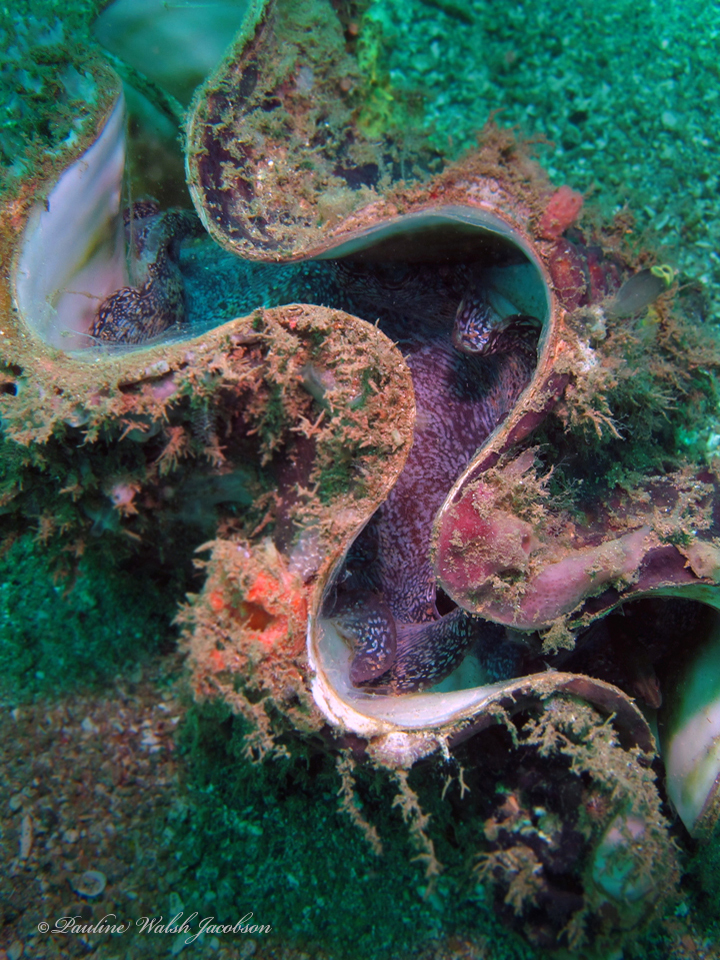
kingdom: Animalia
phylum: Mollusca
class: Bivalvia
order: Cardiida
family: Cardiidae
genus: Tridacna
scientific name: Tridacna squamosa
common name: Fluted clam
